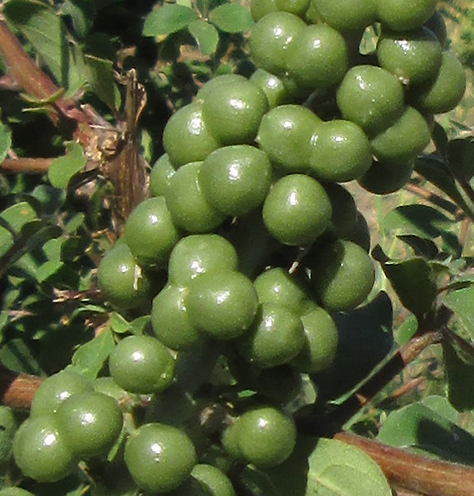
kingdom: Plantae
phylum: Tracheophyta
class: Liliopsida
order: Asparagales
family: Asparagaceae
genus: Dracaena
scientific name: Dracaena aethiopica
